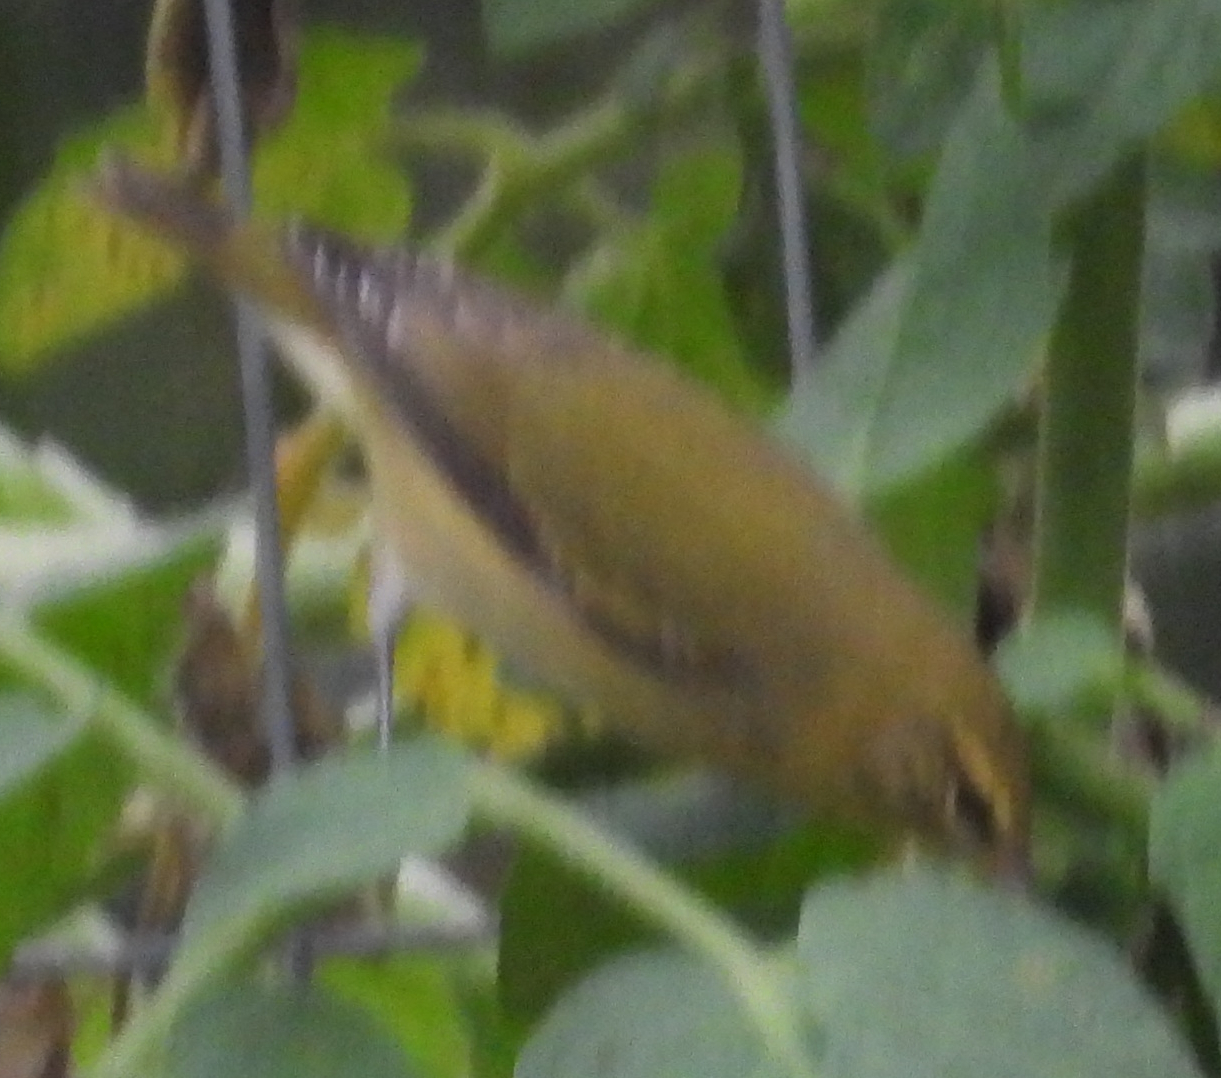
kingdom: Animalia
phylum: Chordata
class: Aves
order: Passeriformes
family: Parulidae
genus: Leiothlypis
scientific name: Leiothlypis peregrina
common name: Tennessee warbler
